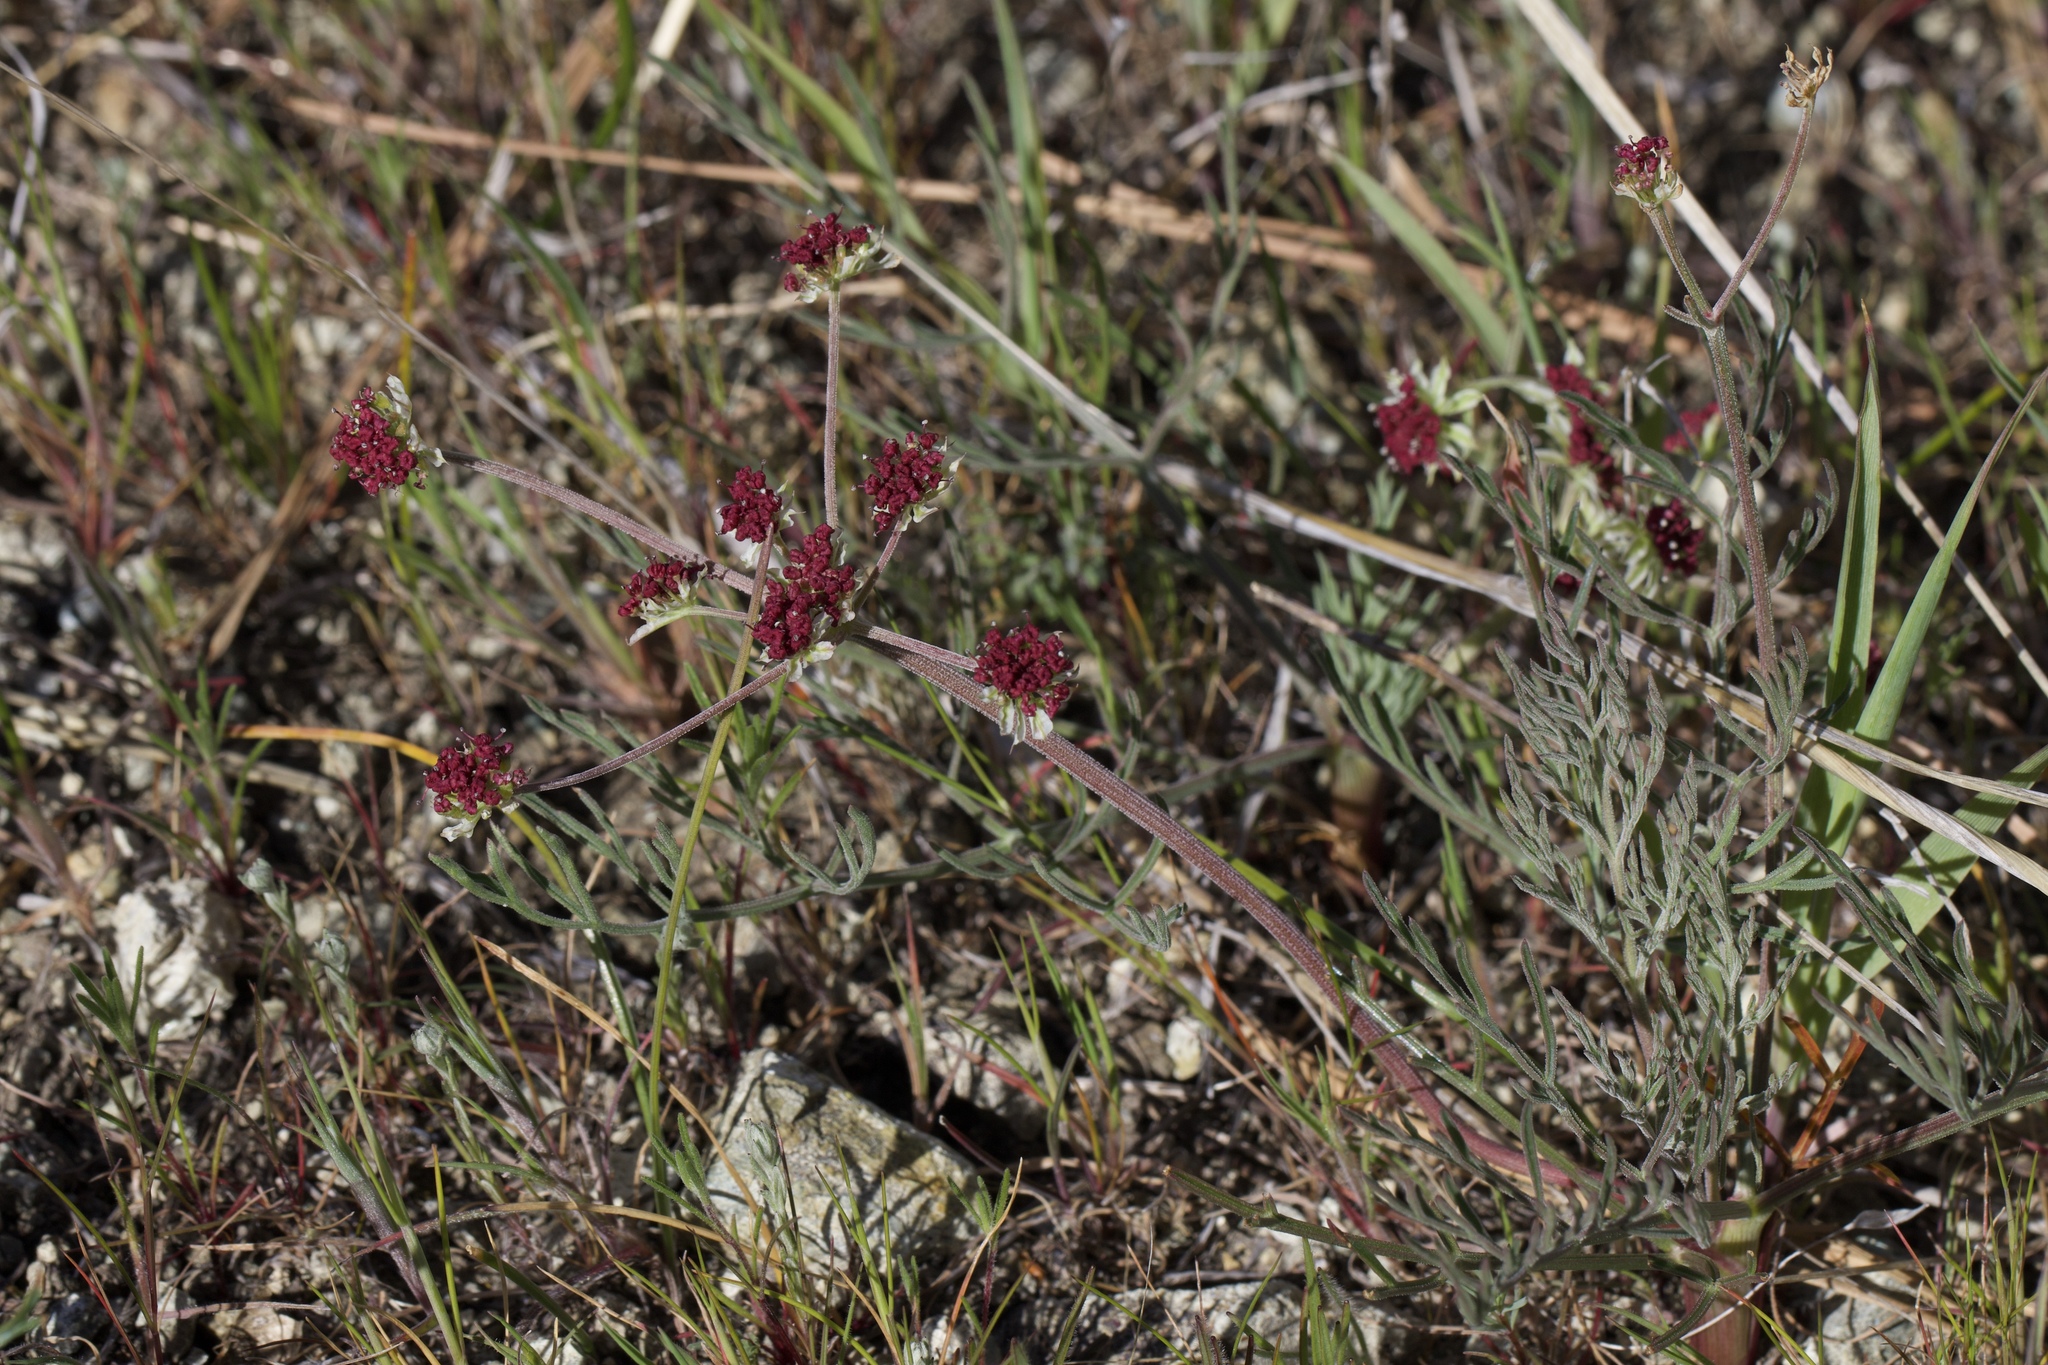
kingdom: Plantae
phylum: Tracheophyta
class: Magnoliopsida
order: Apiales
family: Apiaceae
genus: Lomatium
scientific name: Lomatium hooveri
